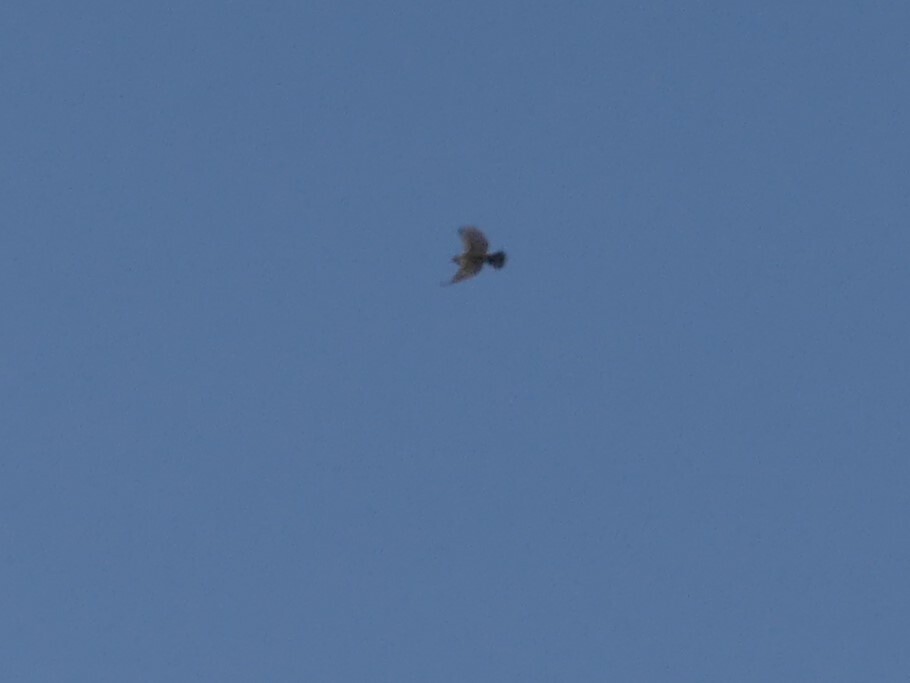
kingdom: Animalia
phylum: Chordata
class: Aves
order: Passeriformes
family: Motacillidae
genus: Anthus
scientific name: Anthus rubescens
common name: Buff-bellied pipit
